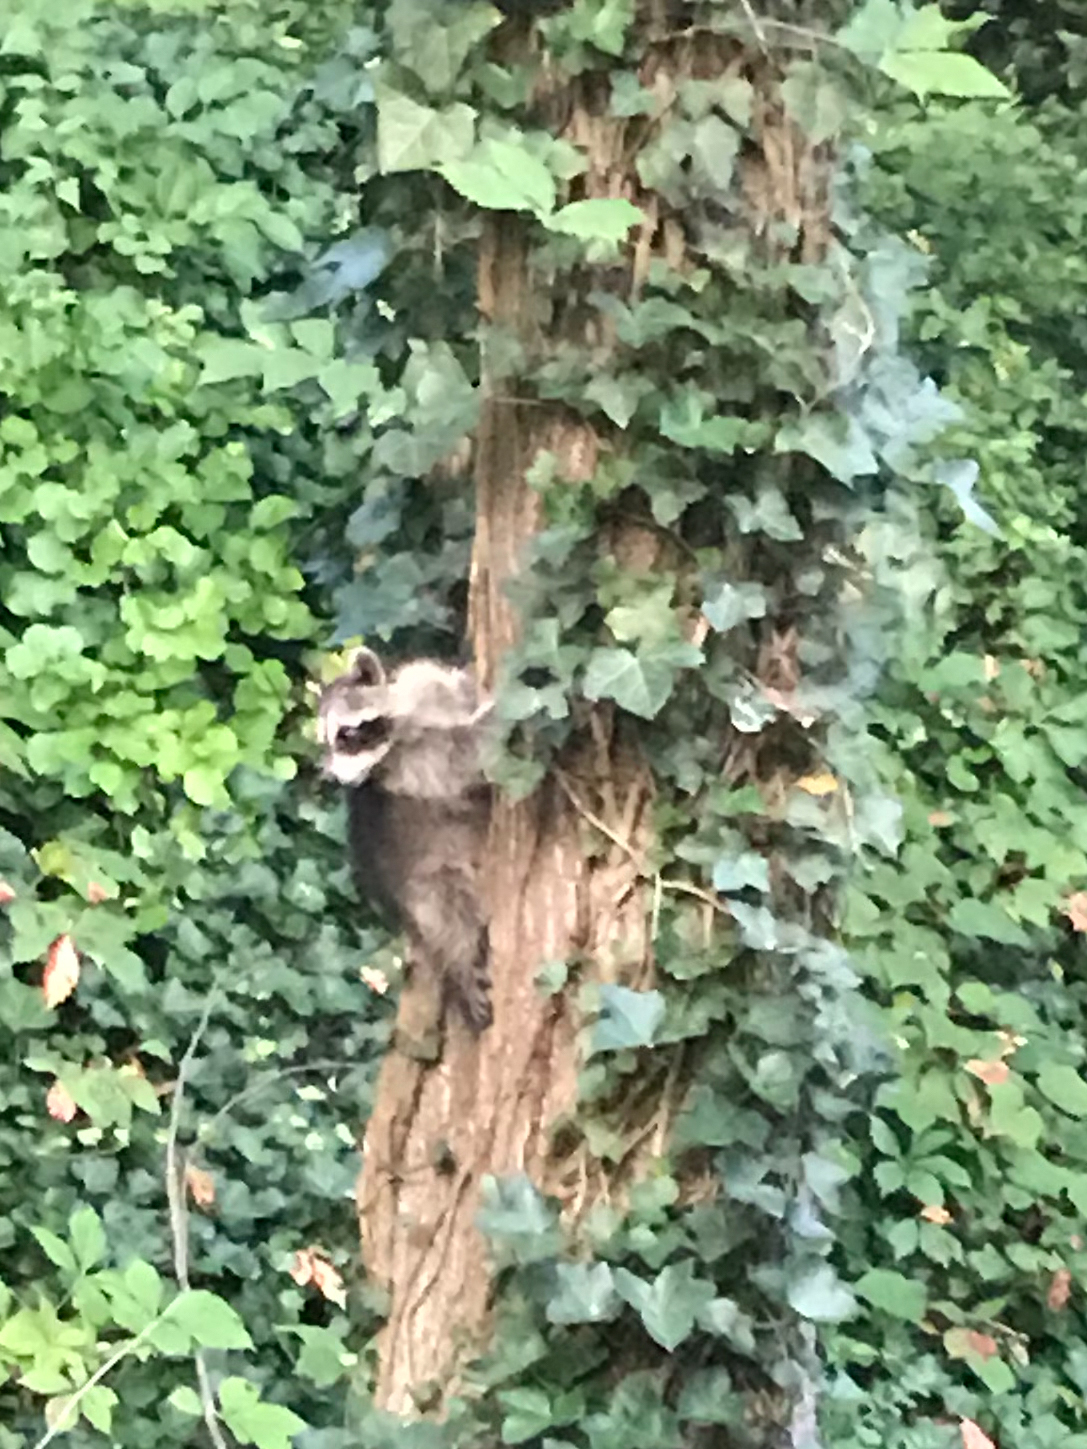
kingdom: Animalia
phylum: Chordata
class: Mammalia
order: Carnivora
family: Procyonidae
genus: Procyon
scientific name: Procyon lotor
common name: Raccoon
